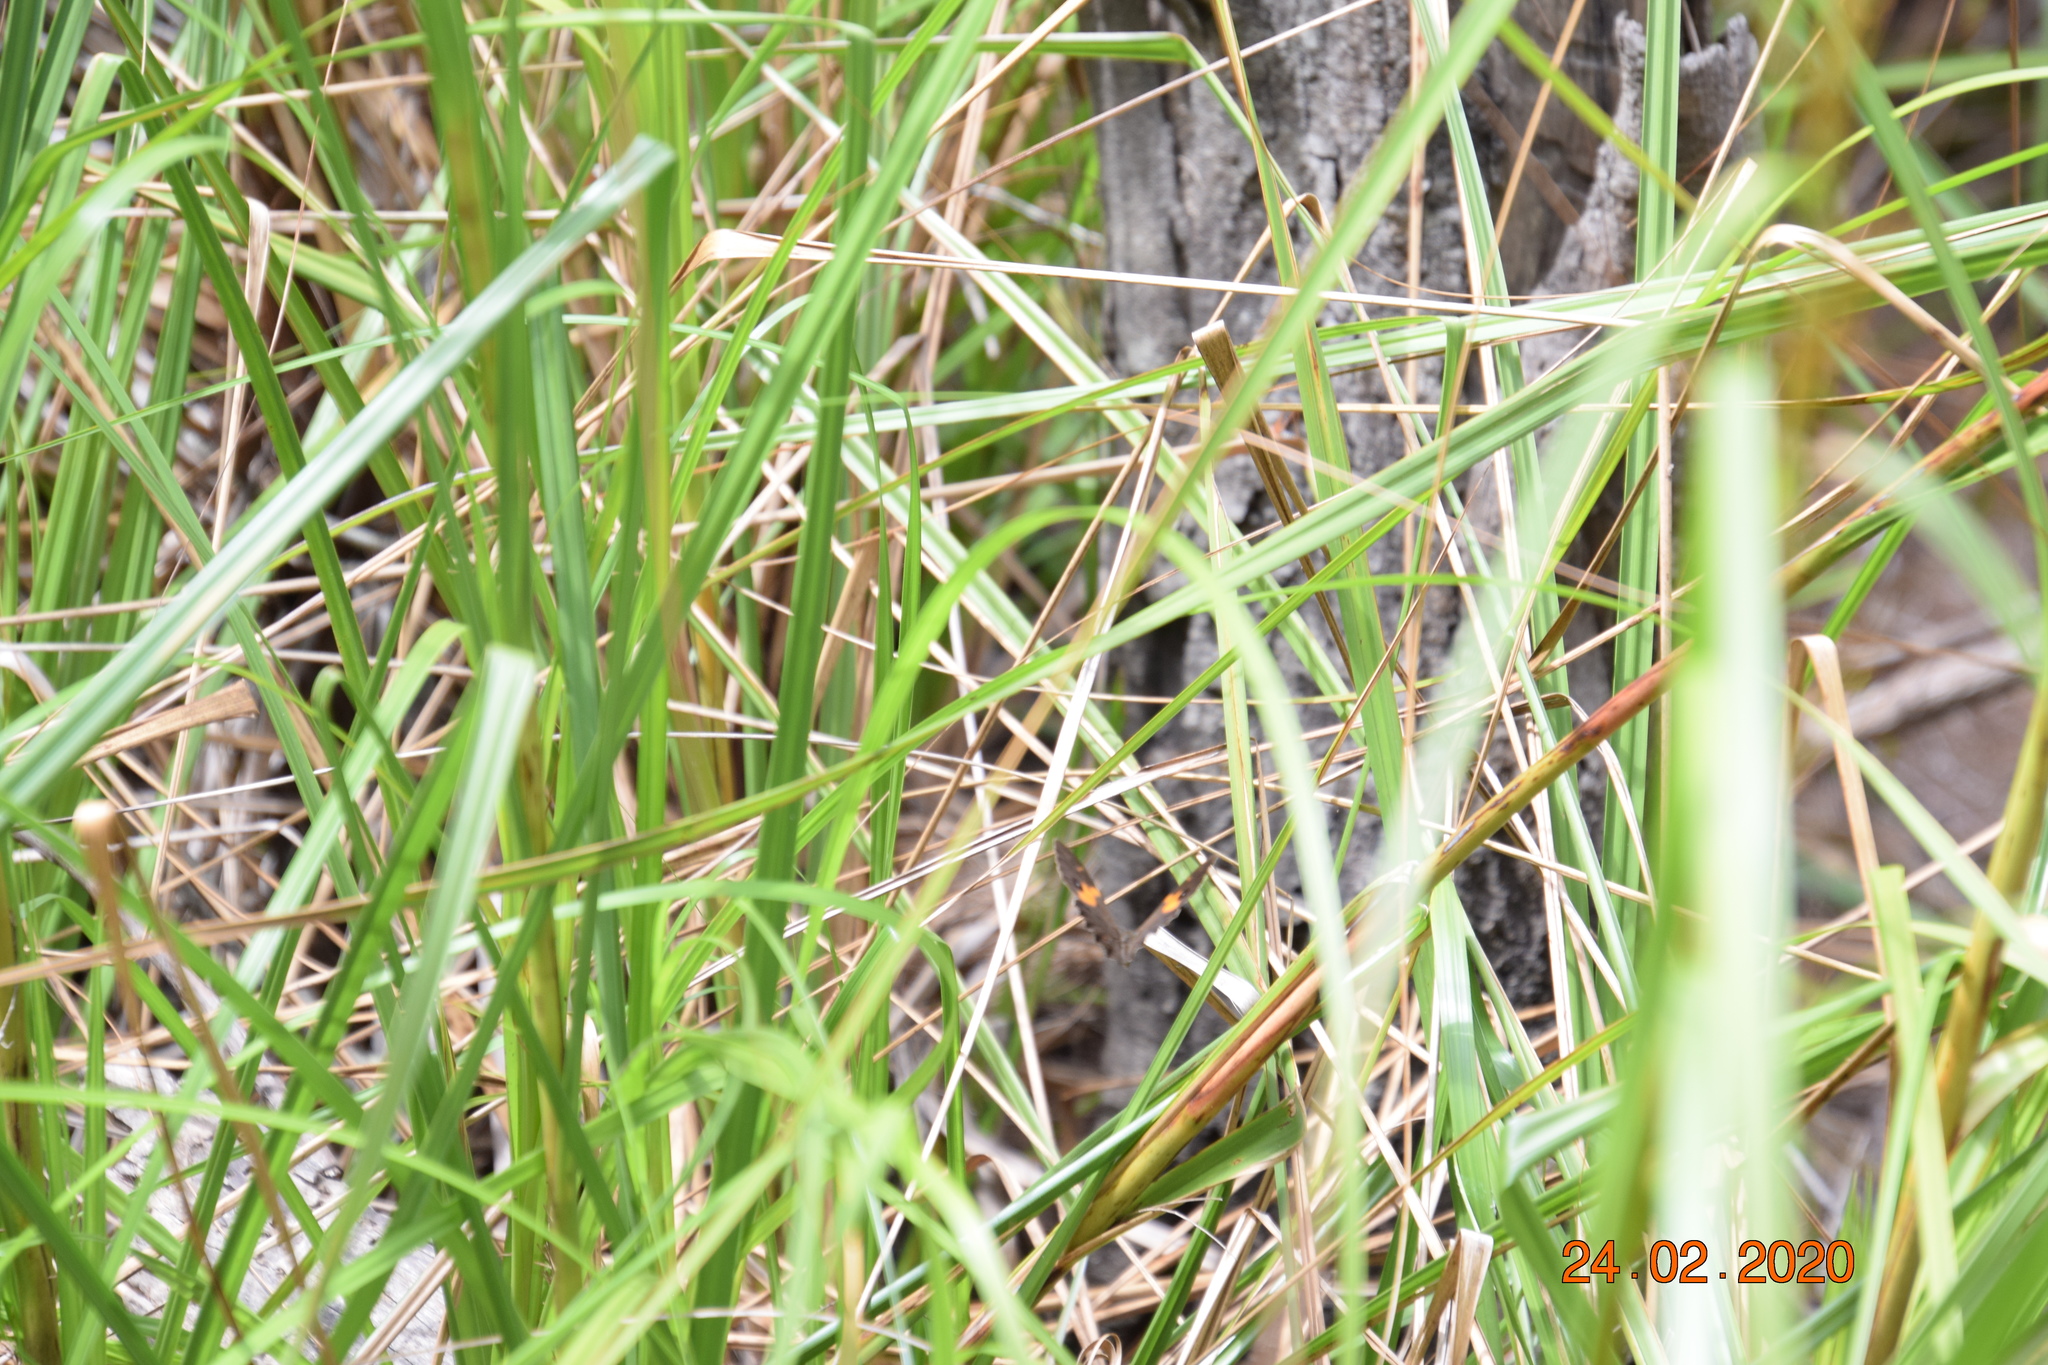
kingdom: Animalia
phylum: Arthropoda
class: Insecta
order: Lepidoptera
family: Nymphalidae
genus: Tisiphone
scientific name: Tisiphone abeona
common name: Swordgrass brown
